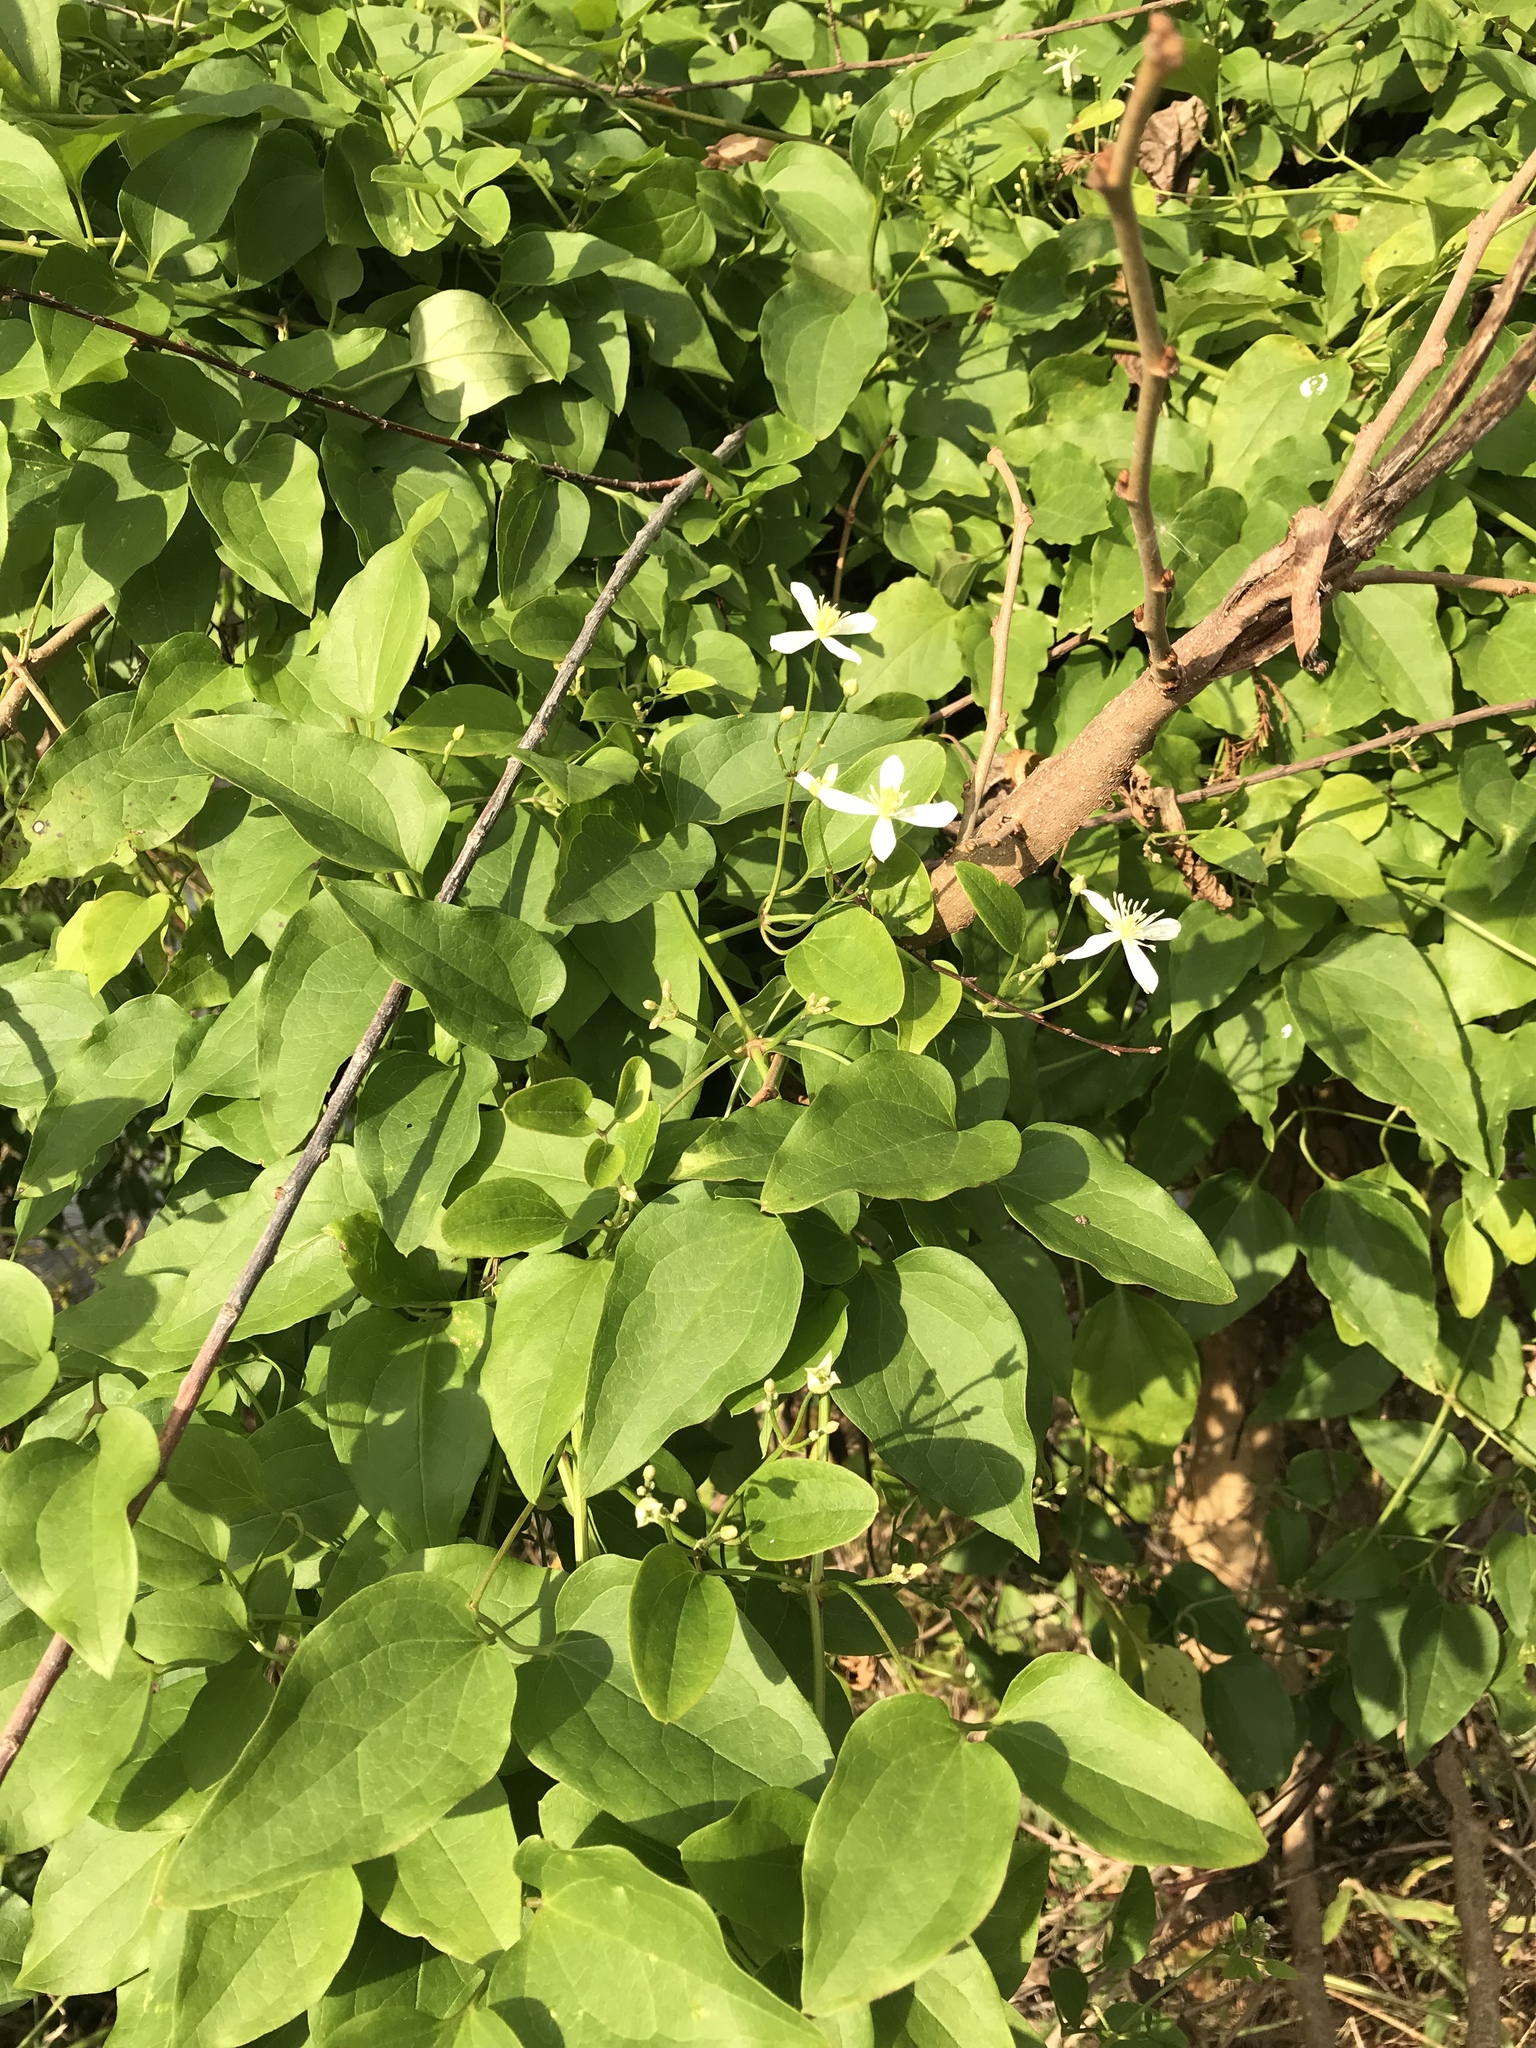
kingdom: Plantae
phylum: Tracheophyta
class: Magnoliopsida
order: Ranunculales
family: Ranunculaceae
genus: Clematis
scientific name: Clematis terniflora
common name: Sweet autumn clematis
